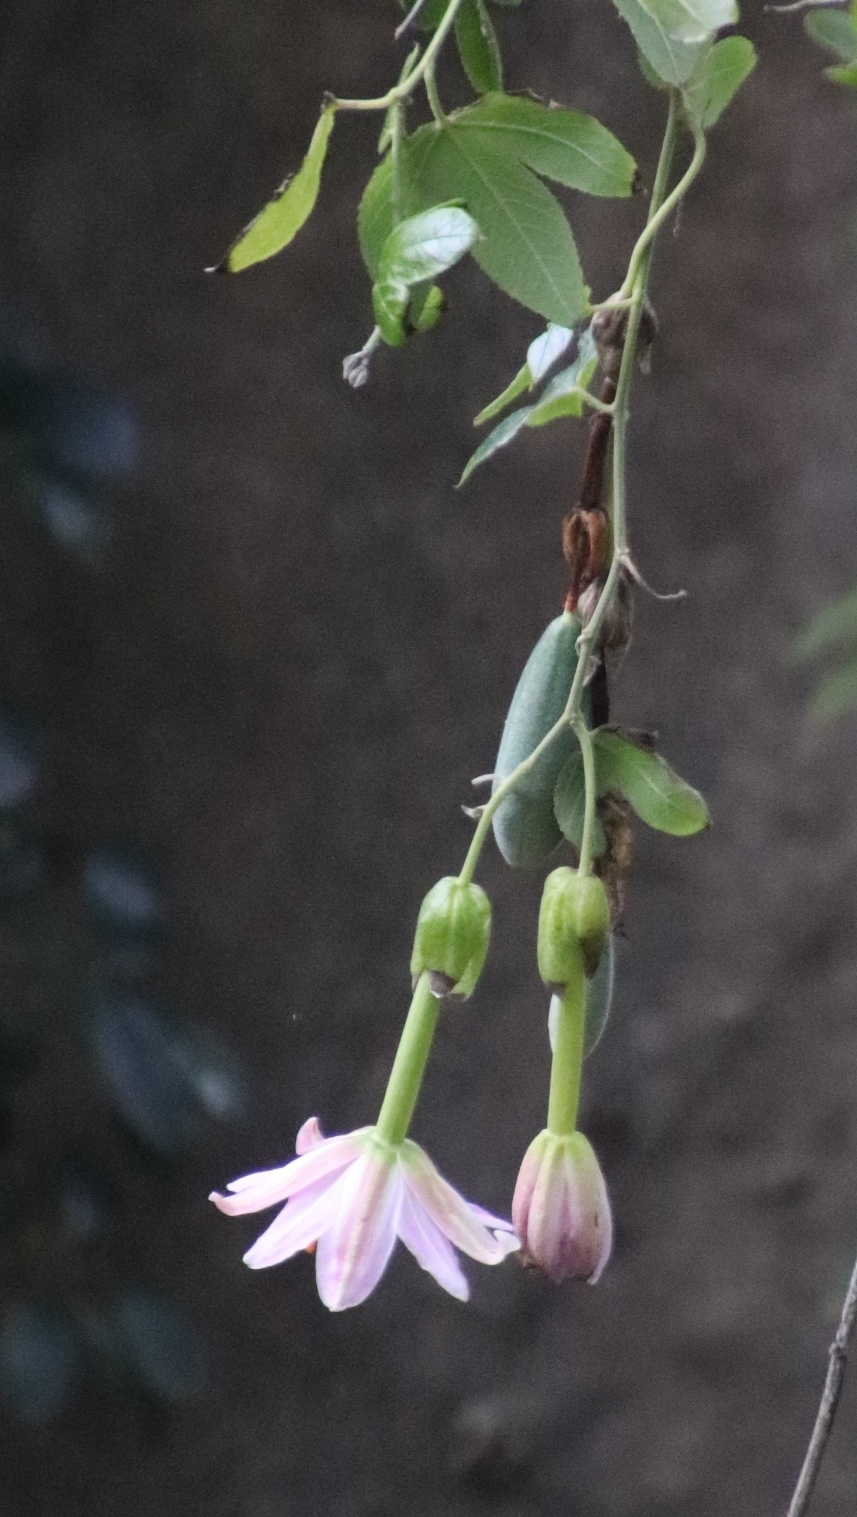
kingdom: Plantae
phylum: Tracheophyta
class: Magnoliopsida
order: Malpighiales
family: Passifloraceae
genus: Passiflora
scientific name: Passiflora tarminiana
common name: Banana poka
